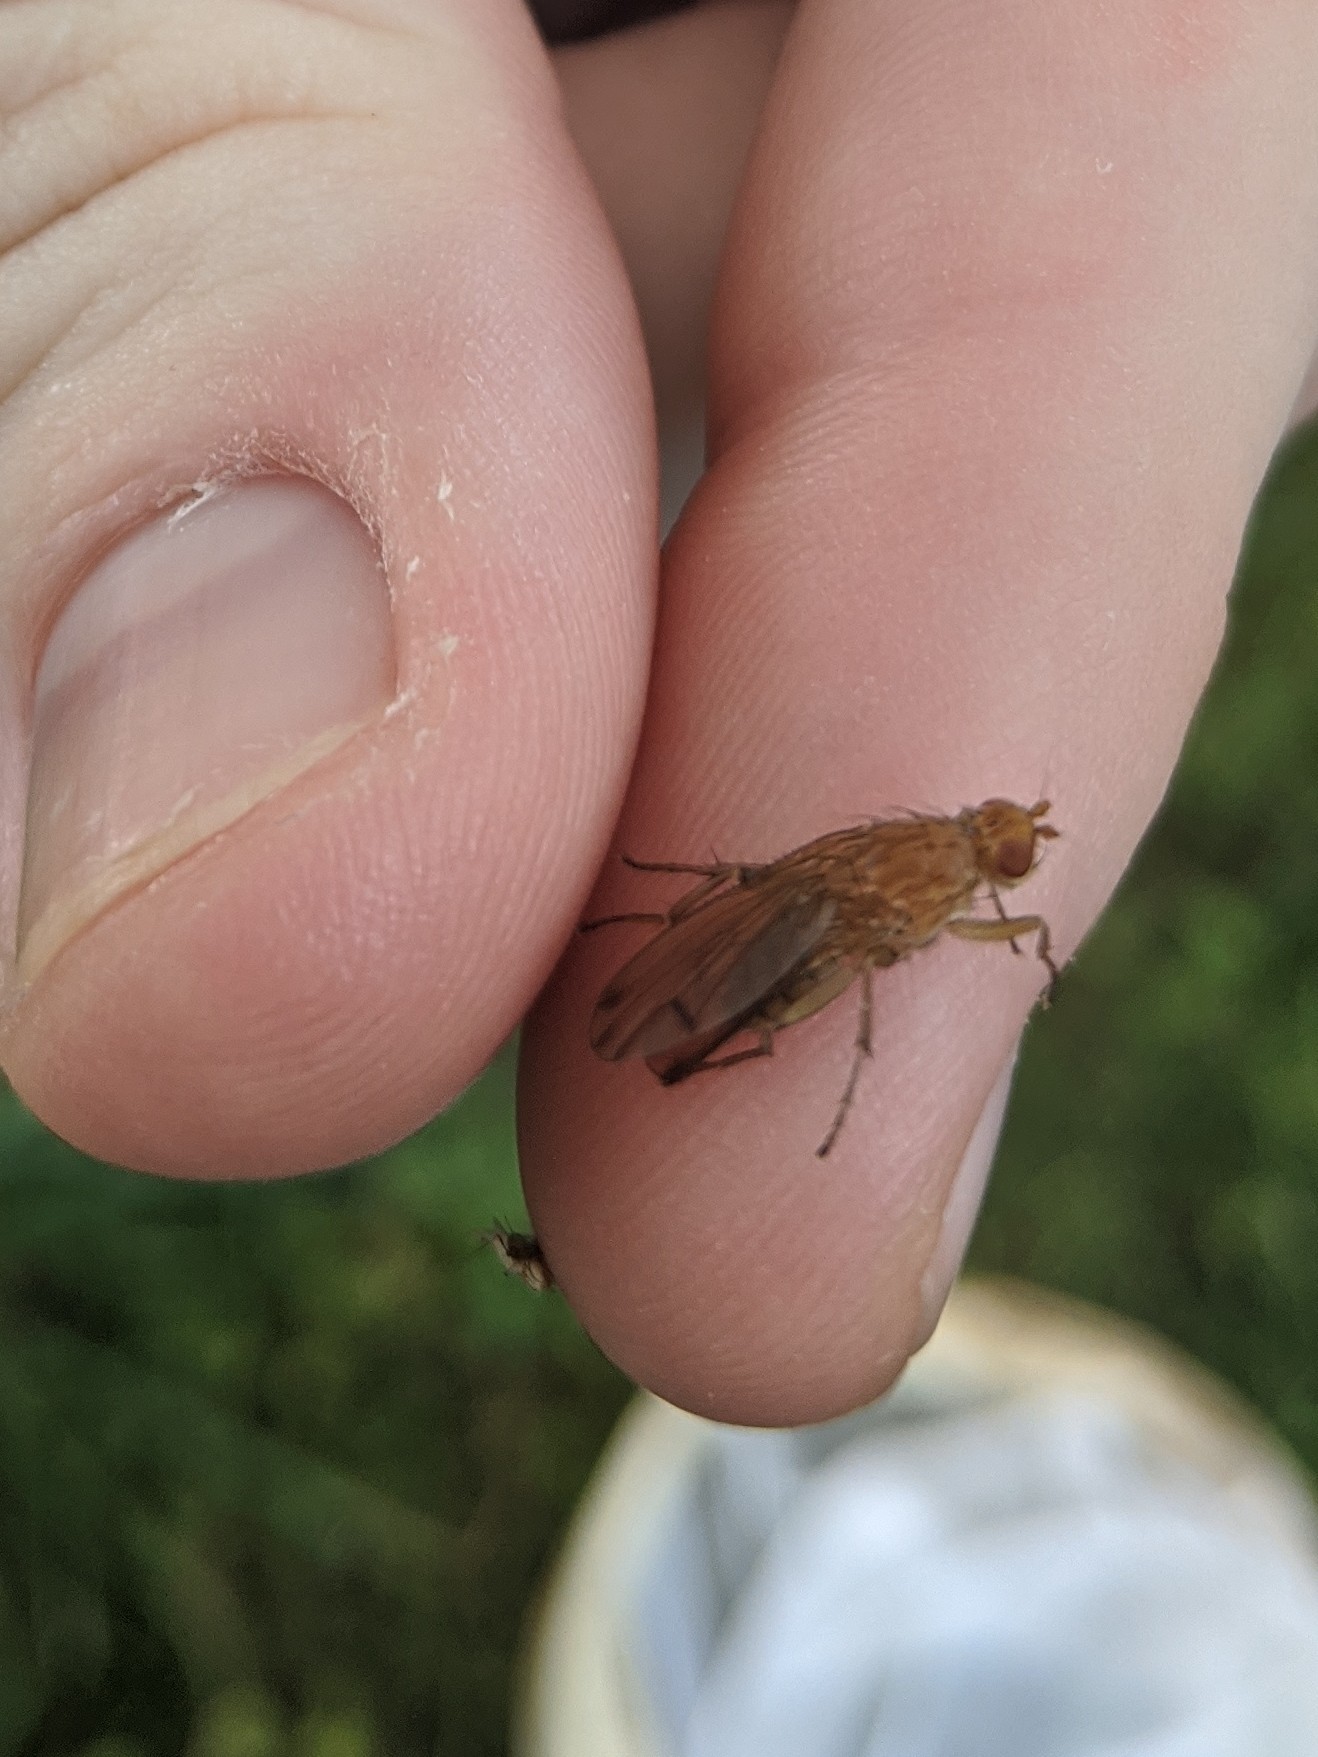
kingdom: Animalia
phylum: Arthropoda
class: Insecta
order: Diptera
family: Heleomyzidae
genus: Amoebaleria
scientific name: Amoebaleria helvola
